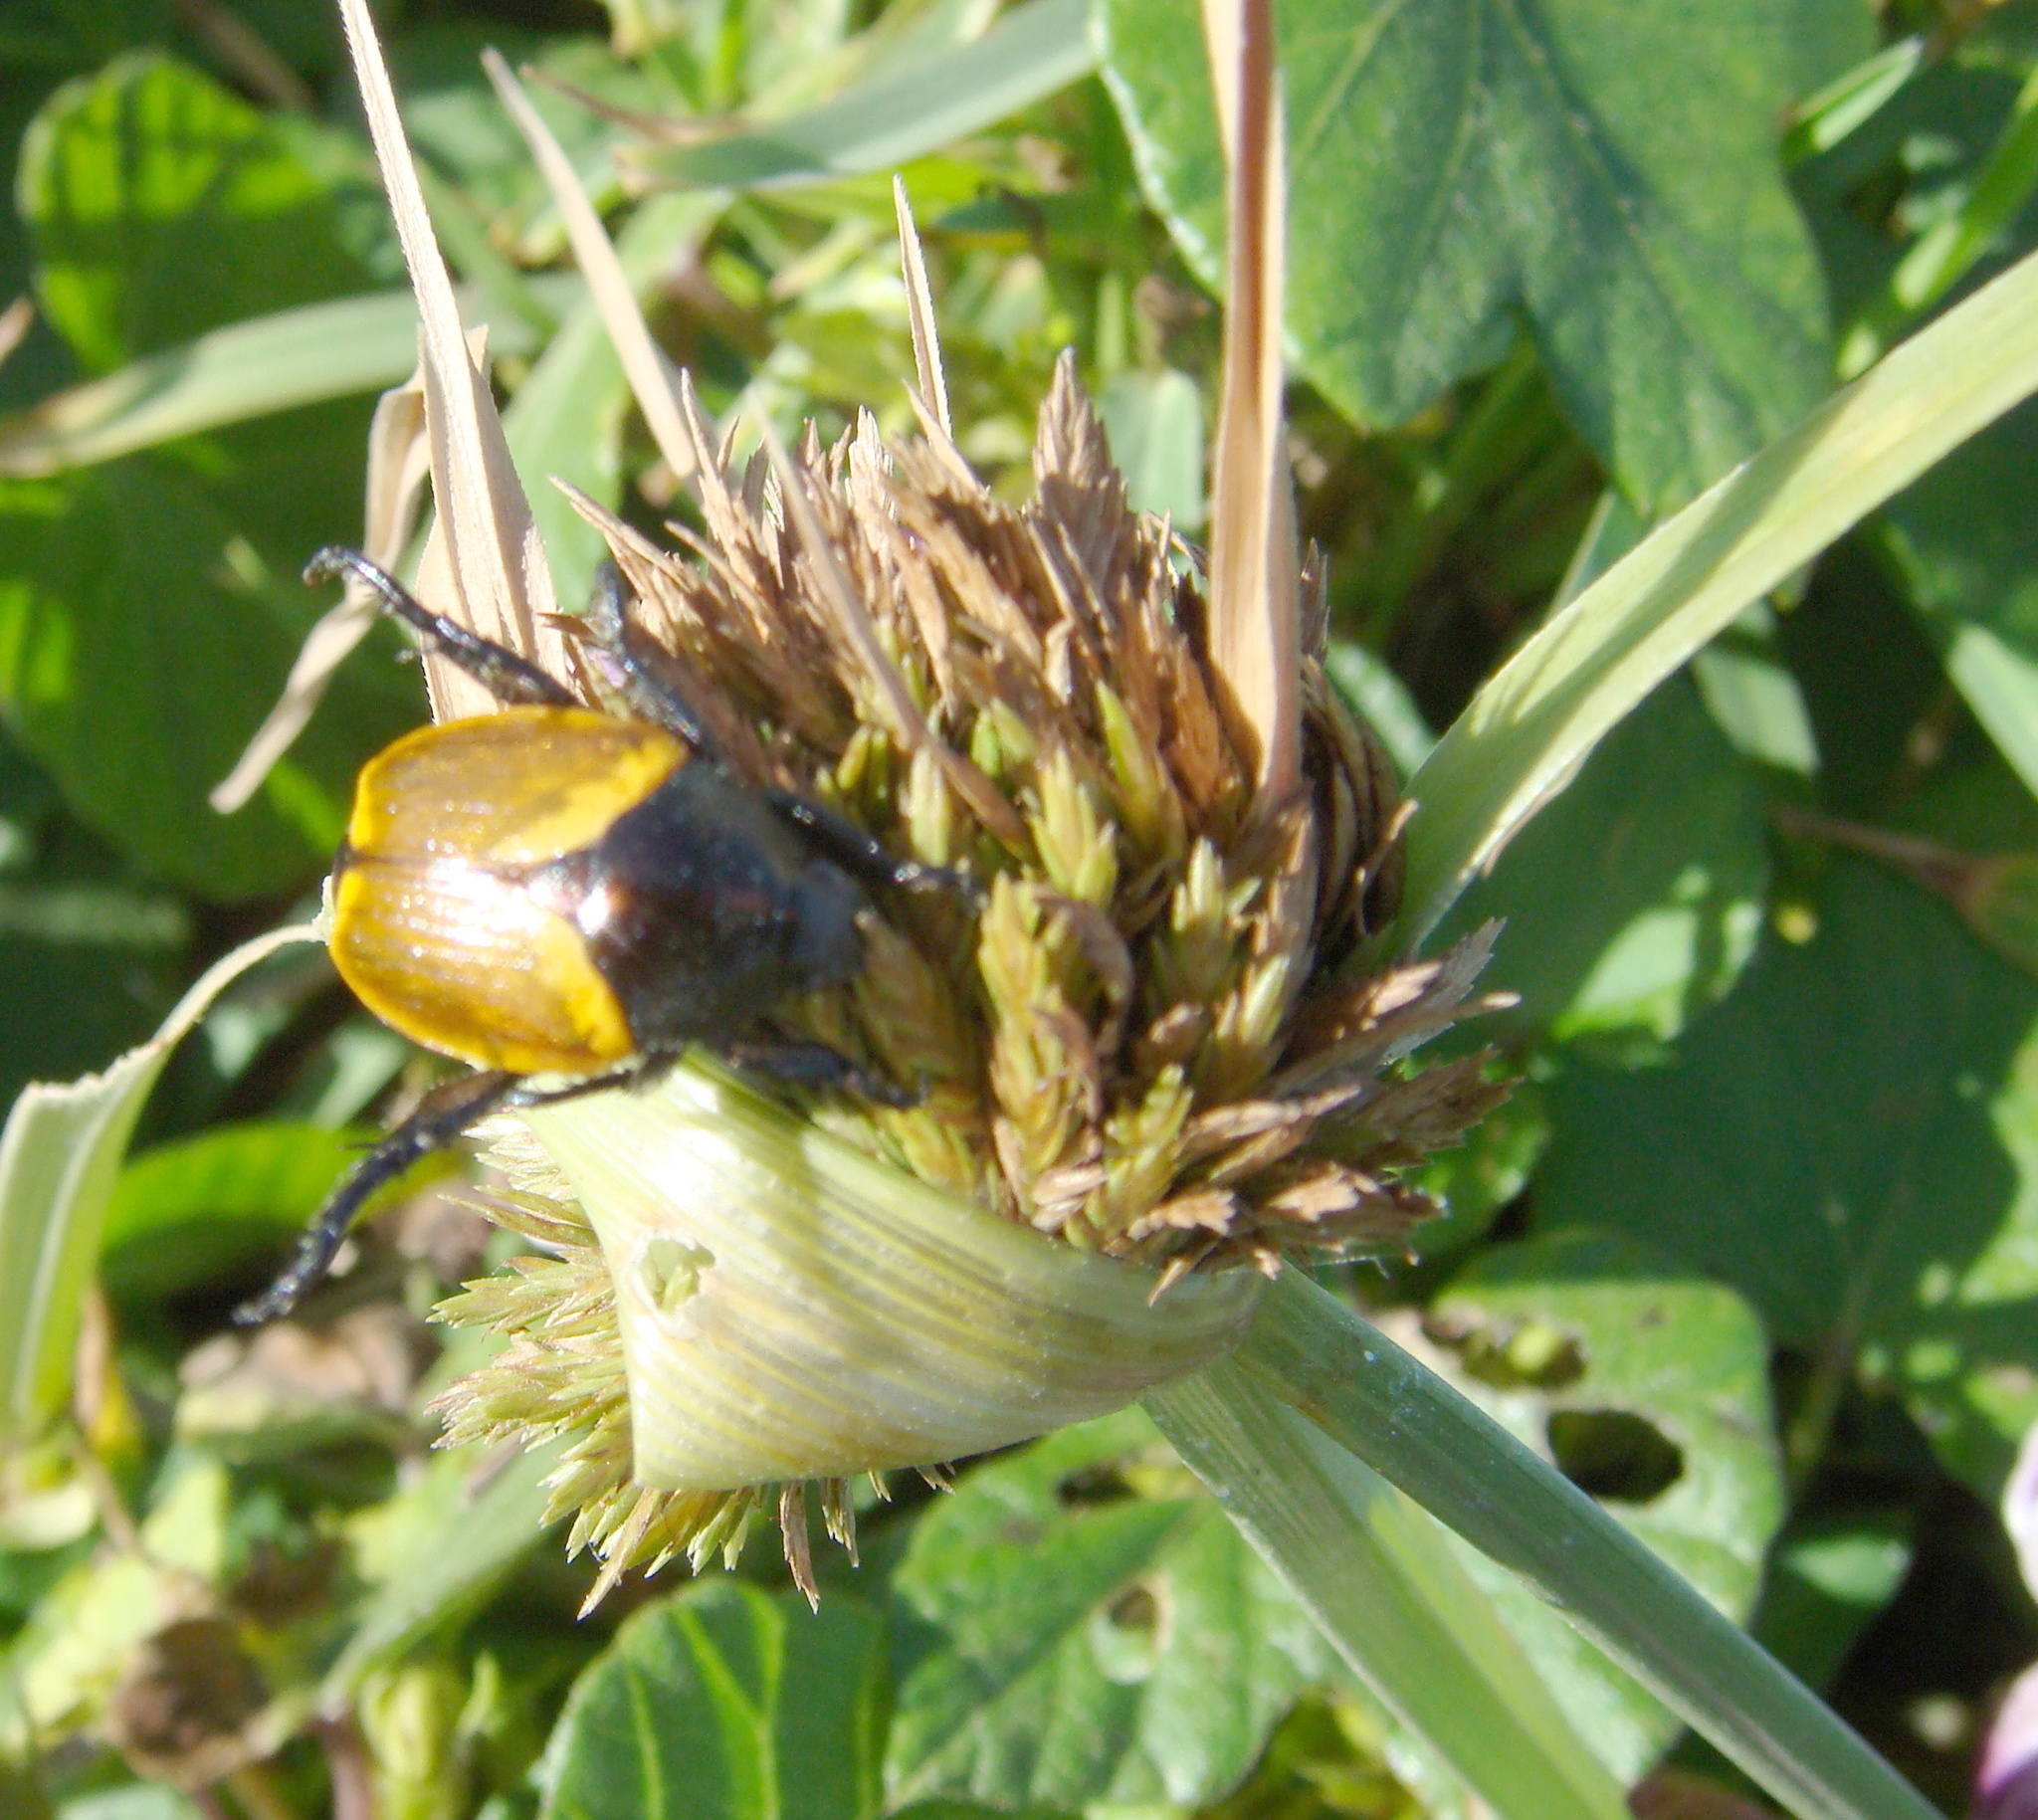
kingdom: Animalia
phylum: Arthropoda
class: Insecta
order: Coleoptera
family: Scarabaeidae
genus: Popillia
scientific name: Popillia bipunctata
